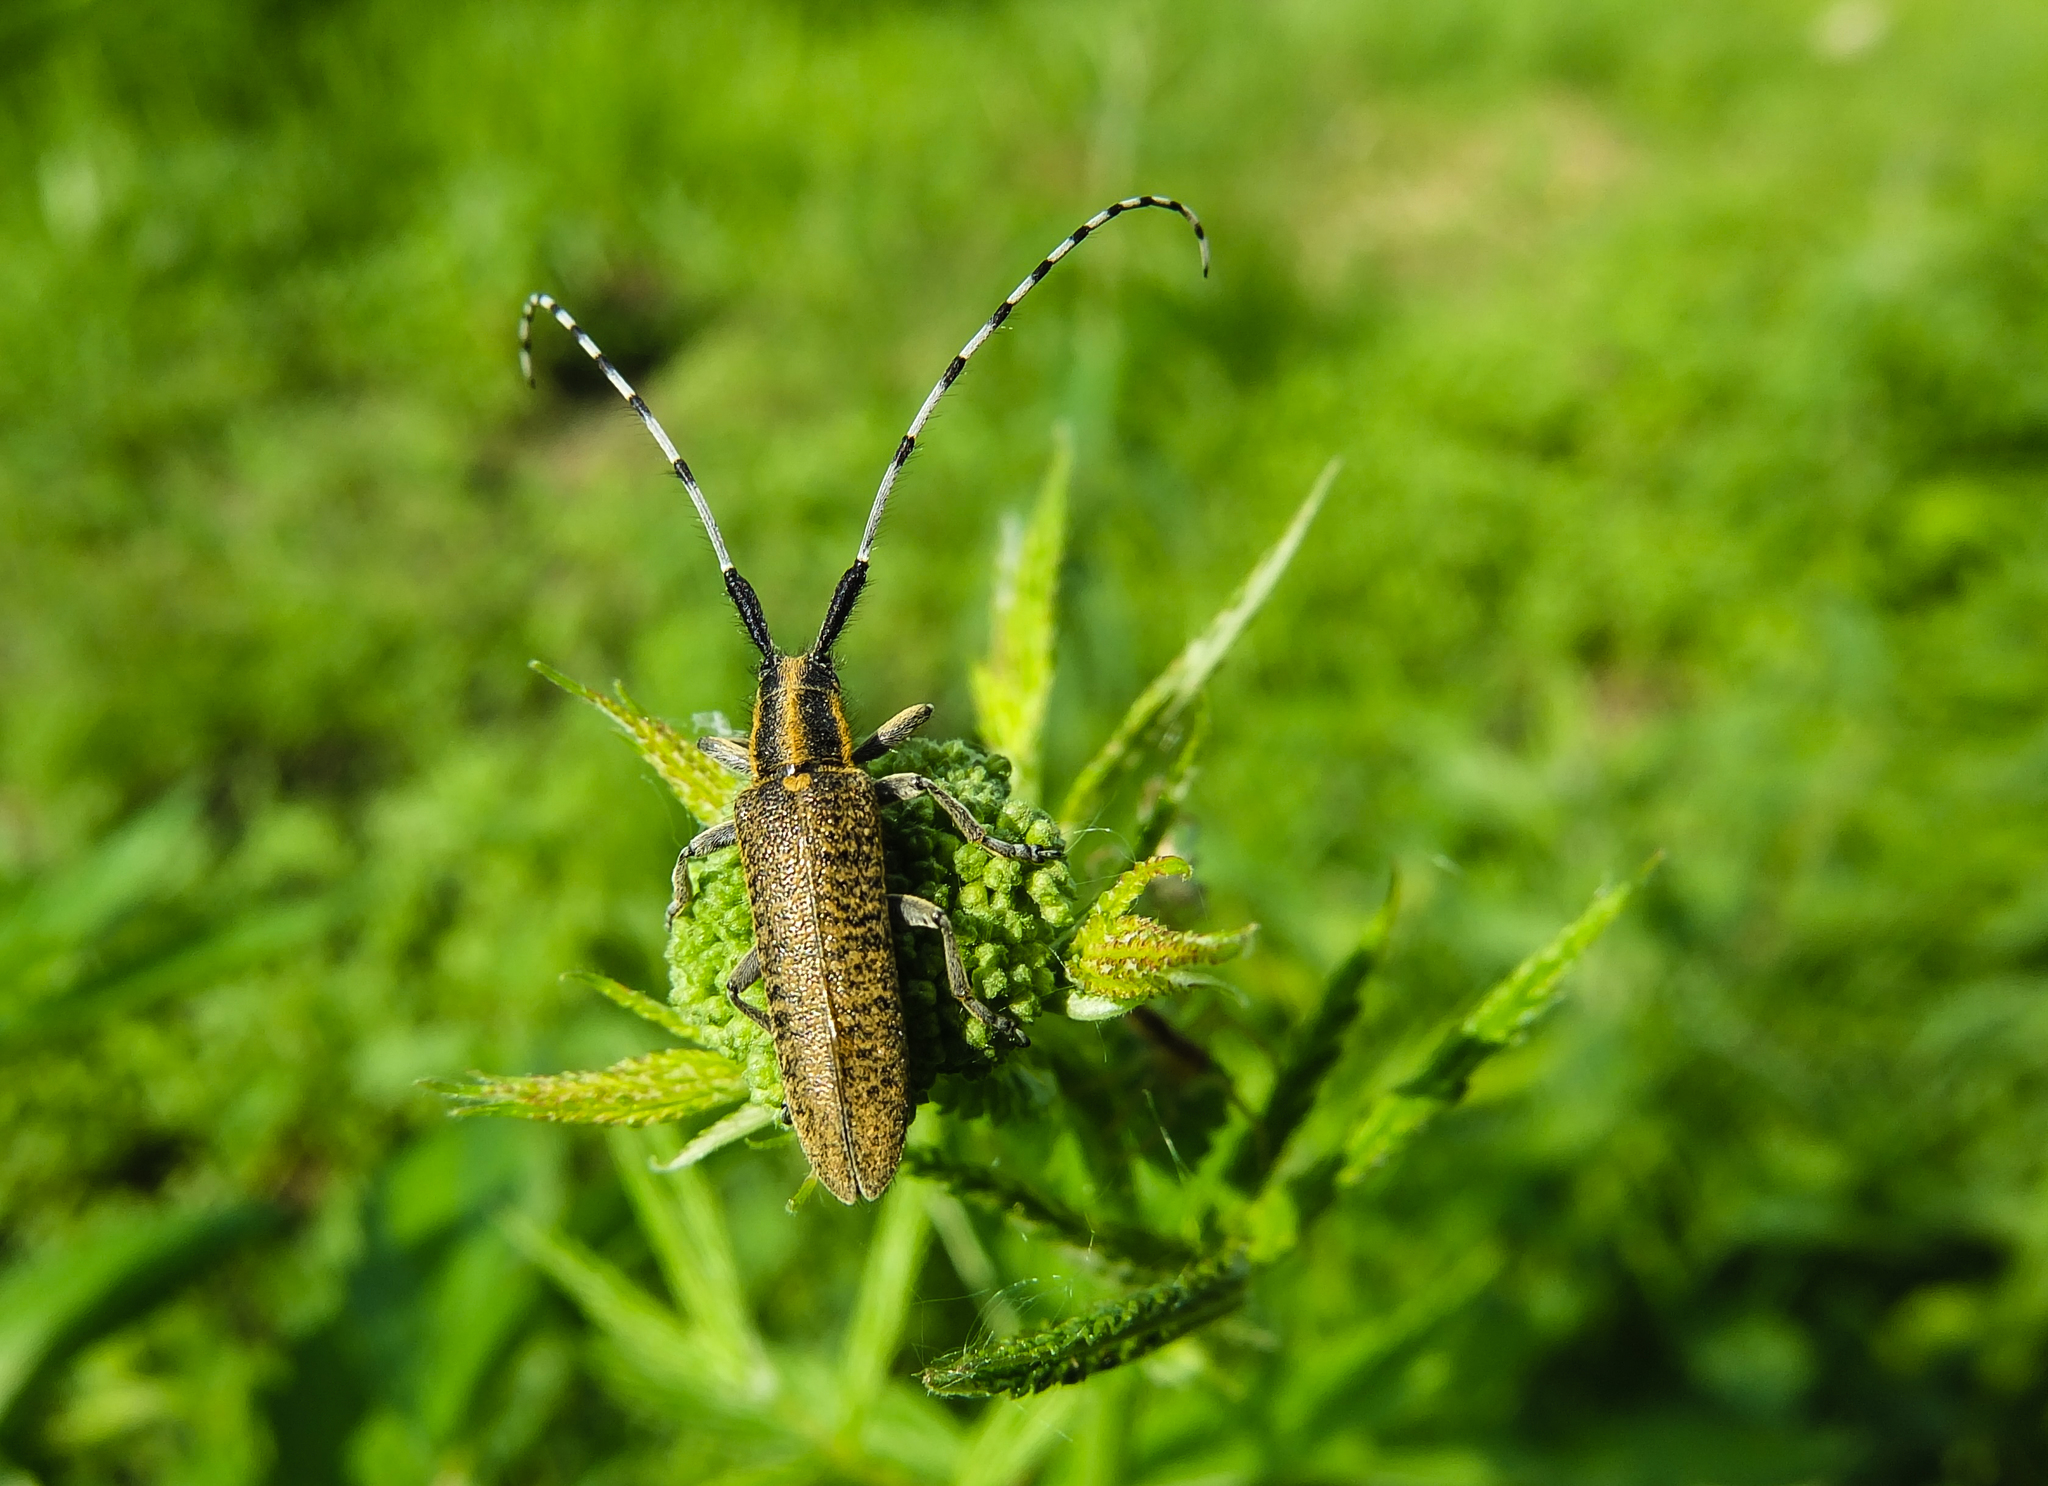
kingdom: Animalia
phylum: Arthropoda
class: Insecta
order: Coleoptera
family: Cerambycidae
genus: Agapanthia
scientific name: Agapanthia villosoviridescens
